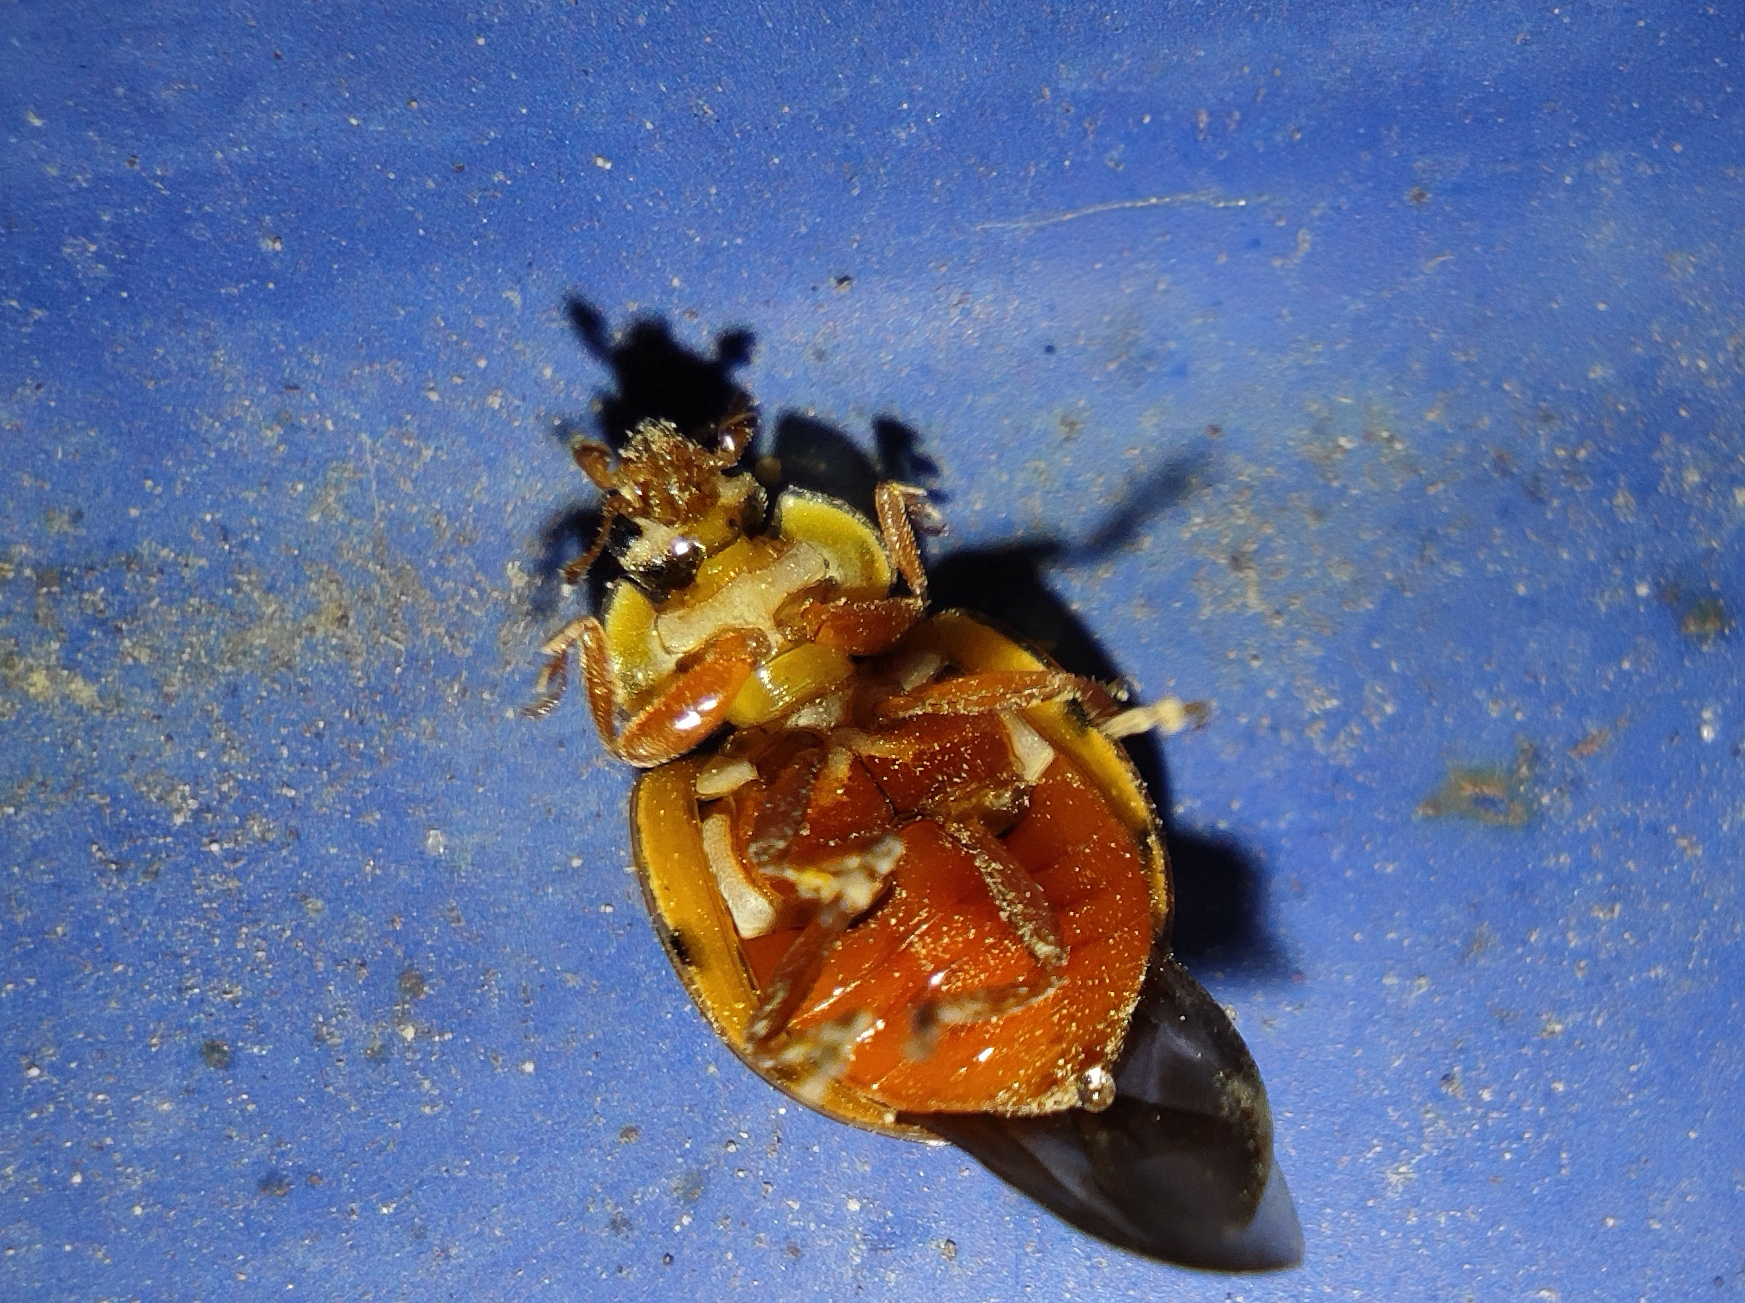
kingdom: Animalia
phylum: Arthropoda
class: Insecta
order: Coleoptera
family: Coccinellidae
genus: Harmonia
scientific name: Harmonia quadripunctata
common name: Cream-streaked ladybird
